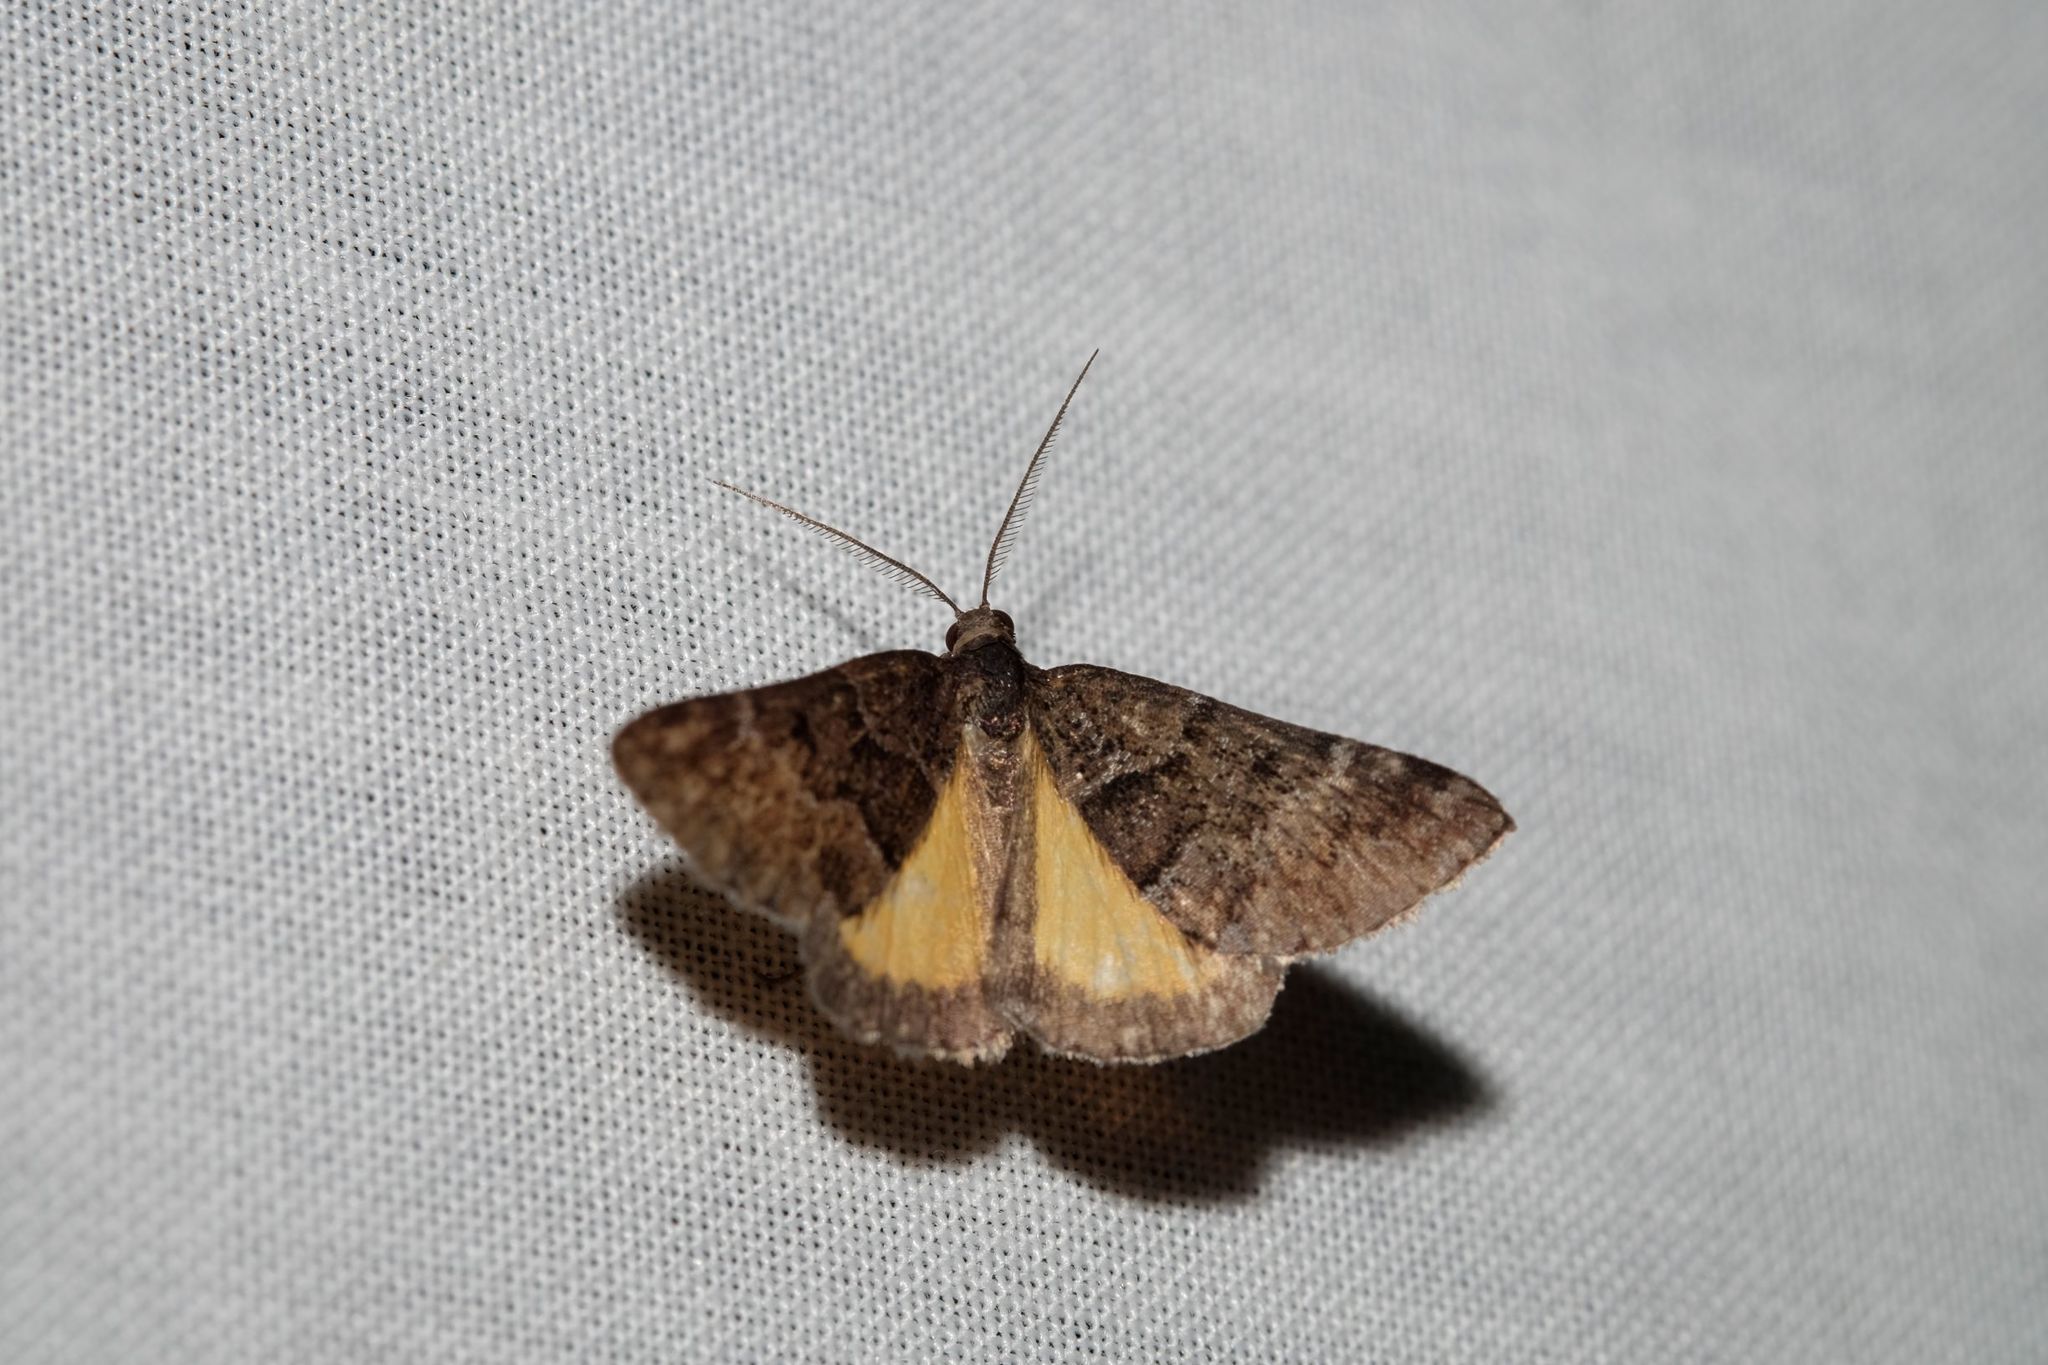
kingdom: Animalia
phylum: Arthropoda
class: Insecta
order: Lepidoptera
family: Geometridae
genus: Dichromodes
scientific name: Dichromodes ainaria
